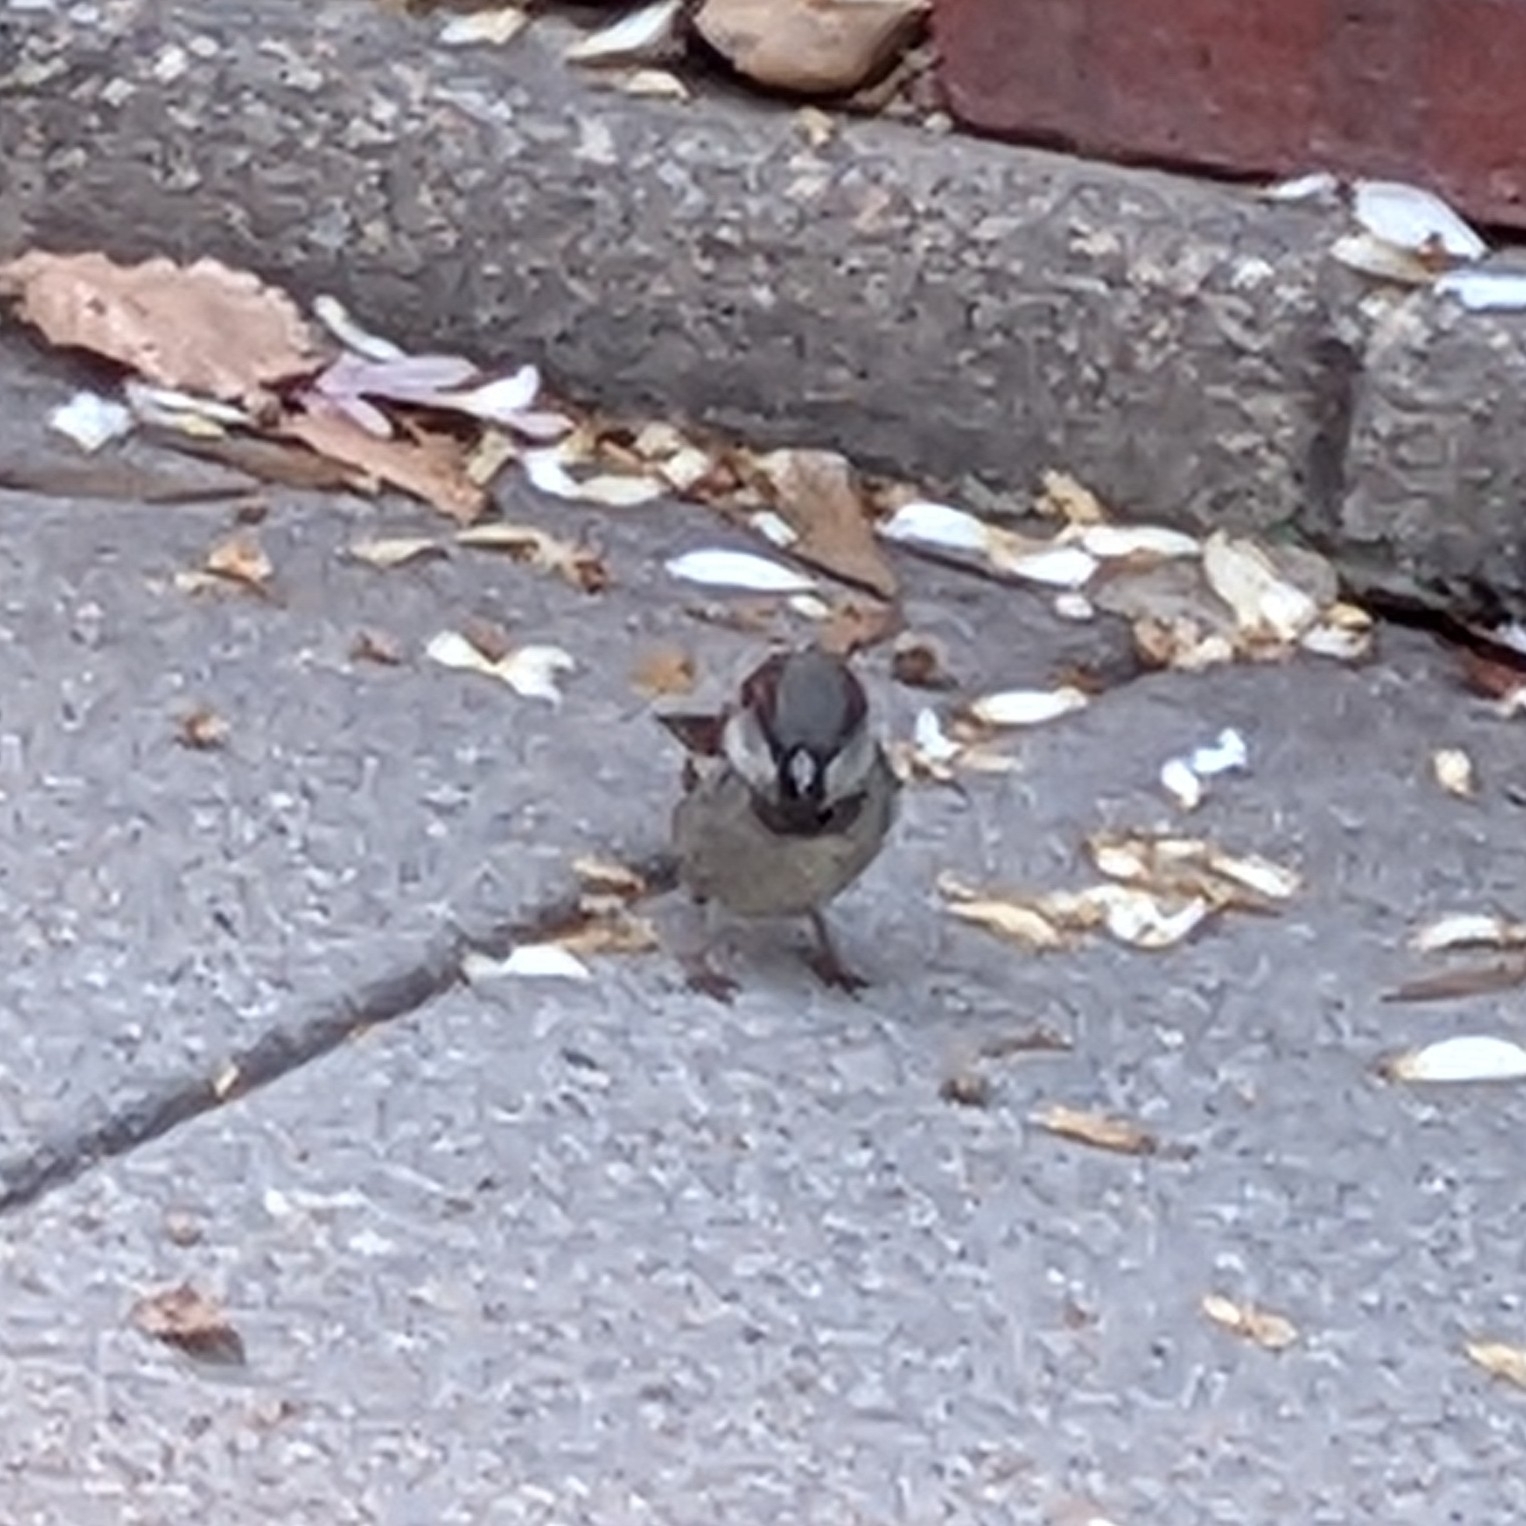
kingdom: Animalia
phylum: Chordata
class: Aves
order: Passeriformes
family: Passeridae
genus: Passer
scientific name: Passer domesticus
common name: House sparrow
